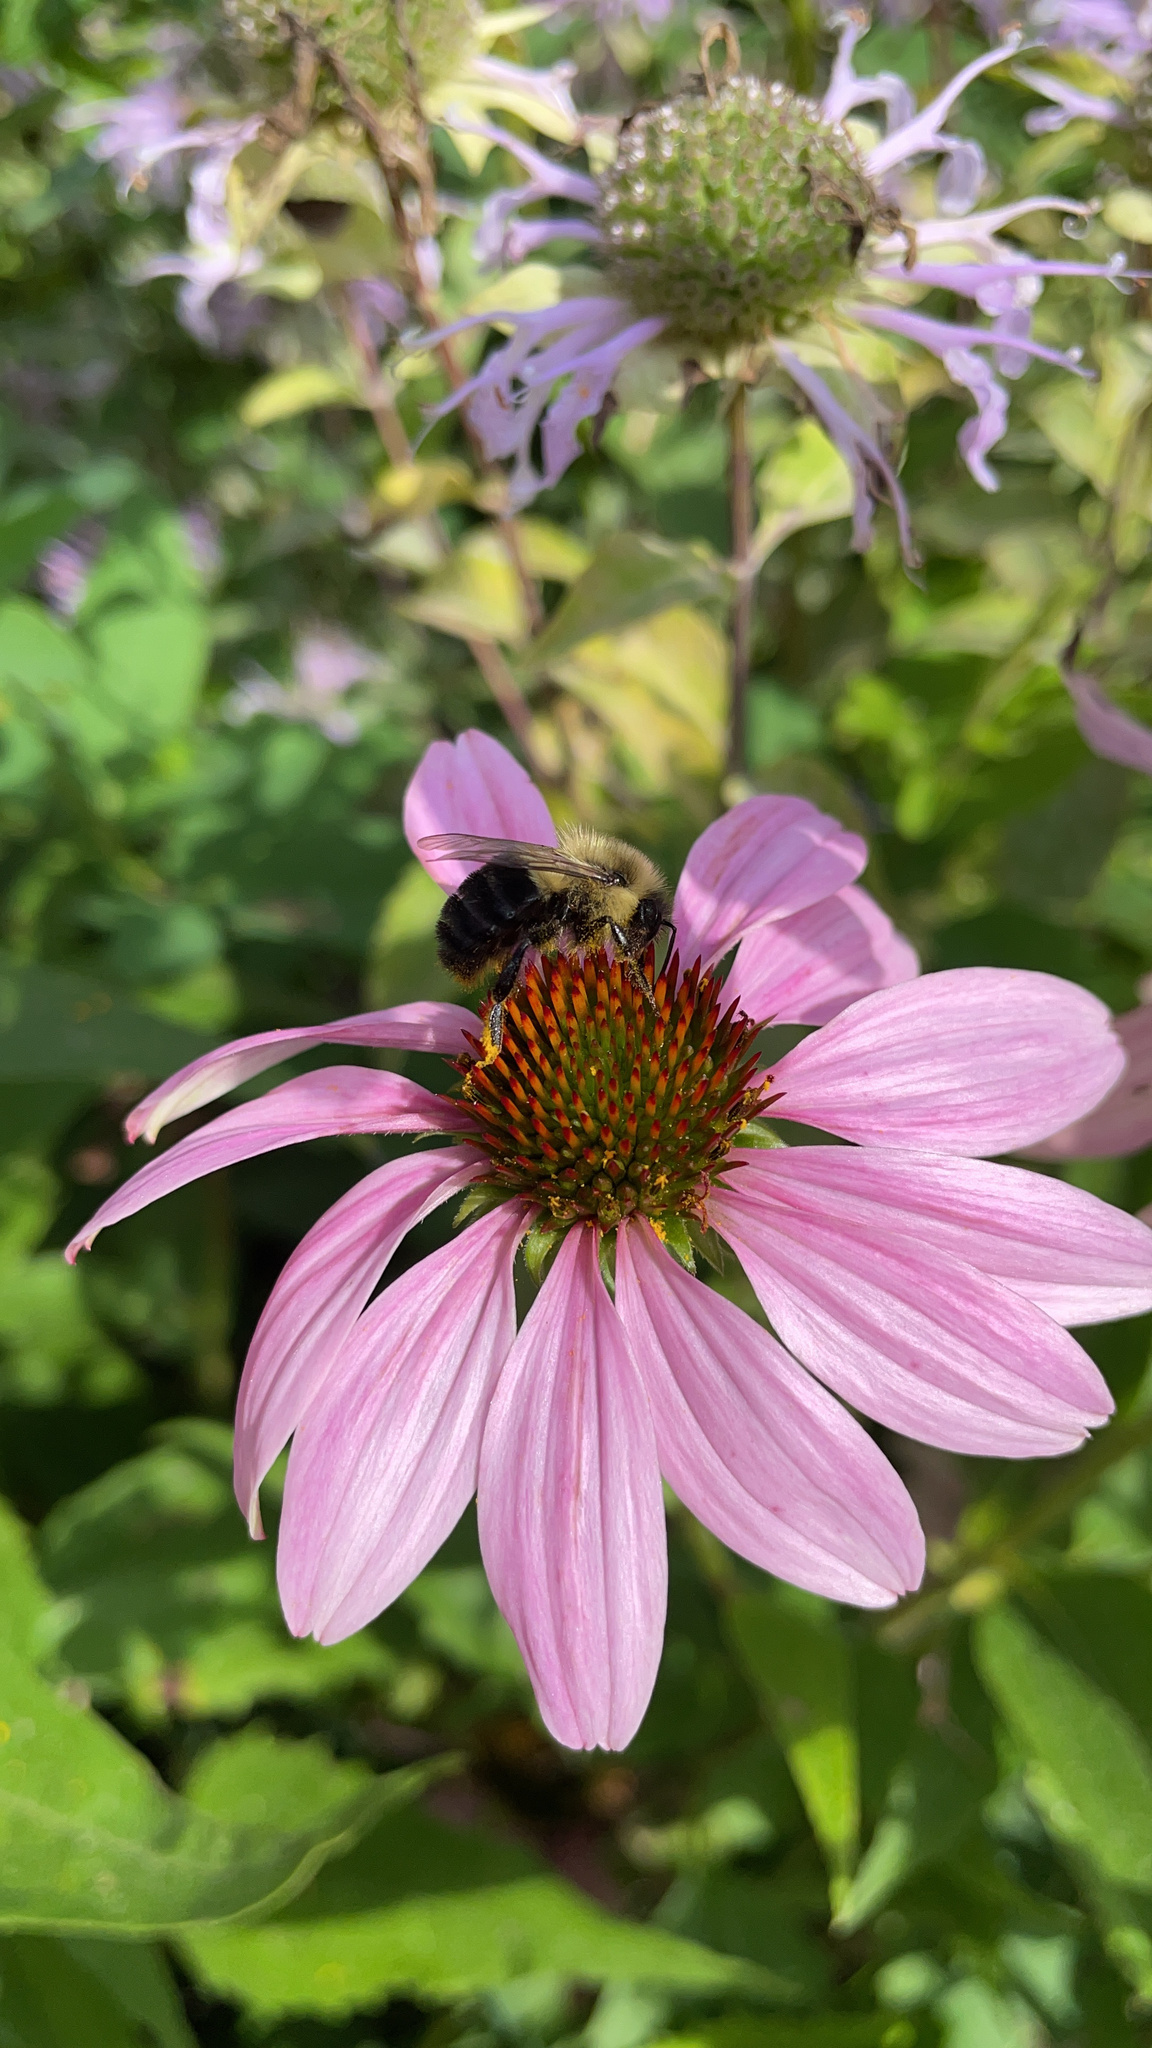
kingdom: Animalia
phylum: Arthropoda
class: Insecta
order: Hymenoptera
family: Apidae
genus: Bombus
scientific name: Bombus impatiens
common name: Common eastern bumble bee
